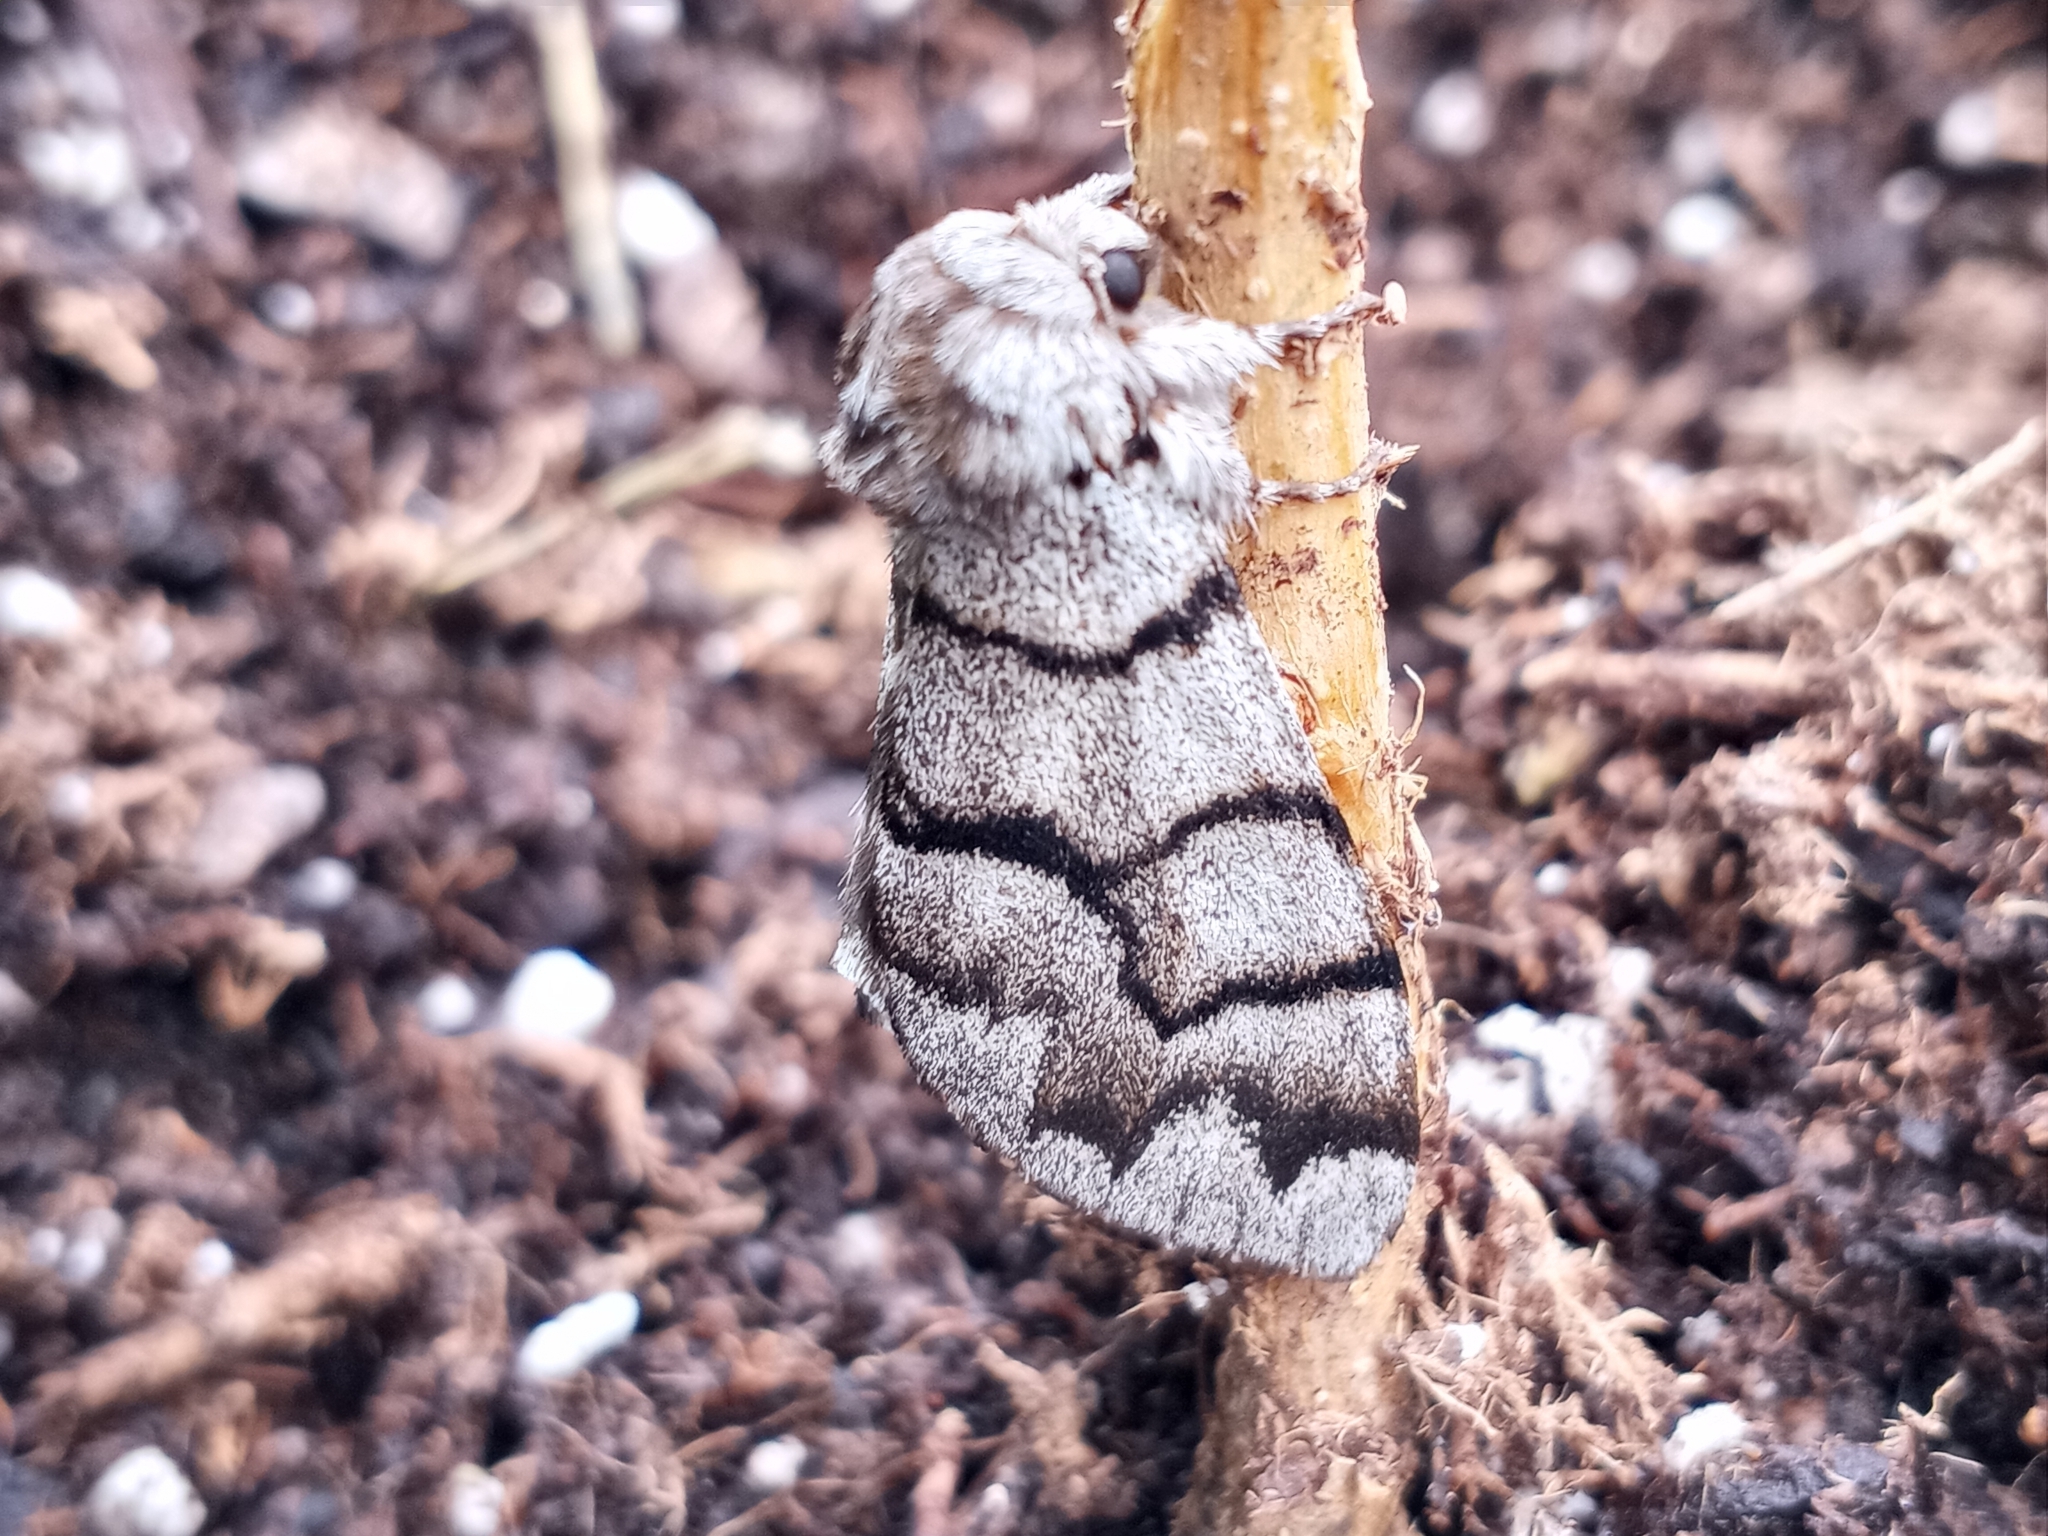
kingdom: Animalia
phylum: Arthropoda
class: Insecta
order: Lepidoptera
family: Noctuidae
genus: Panthea
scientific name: Panthea furcilla
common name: Eastern panthea moth
